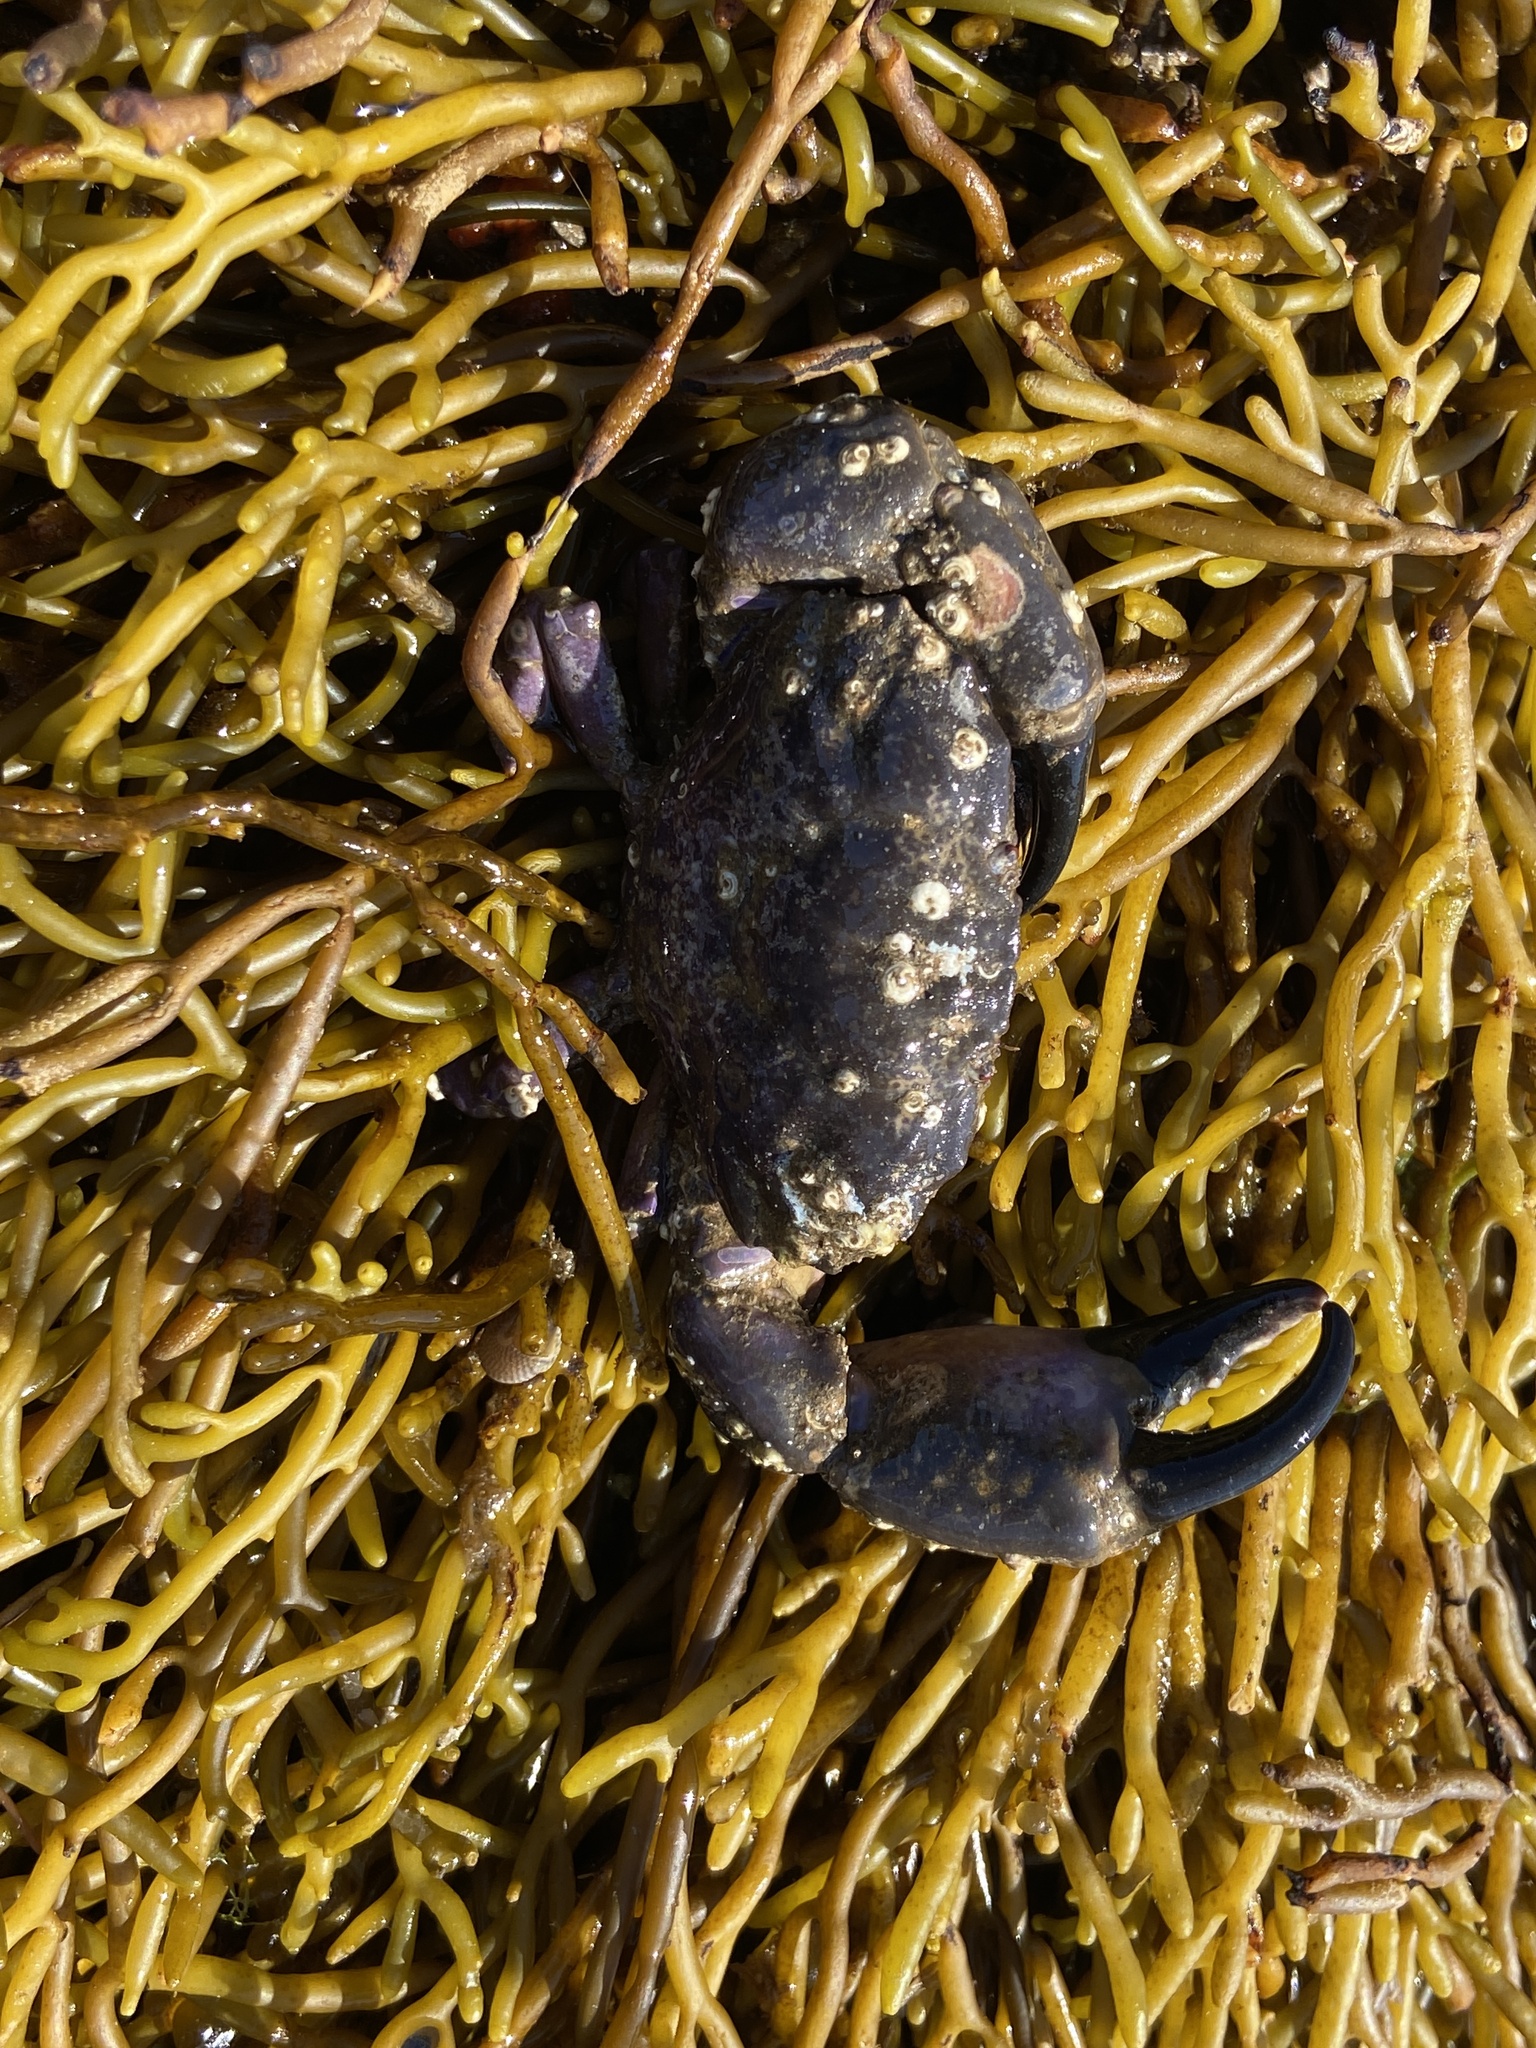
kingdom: Animalia
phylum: Arthropoda
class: Malacostraca
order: Decapoda
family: Xanthidae
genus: Xantho
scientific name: Xantho hydrophilus
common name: Montagu's crab
